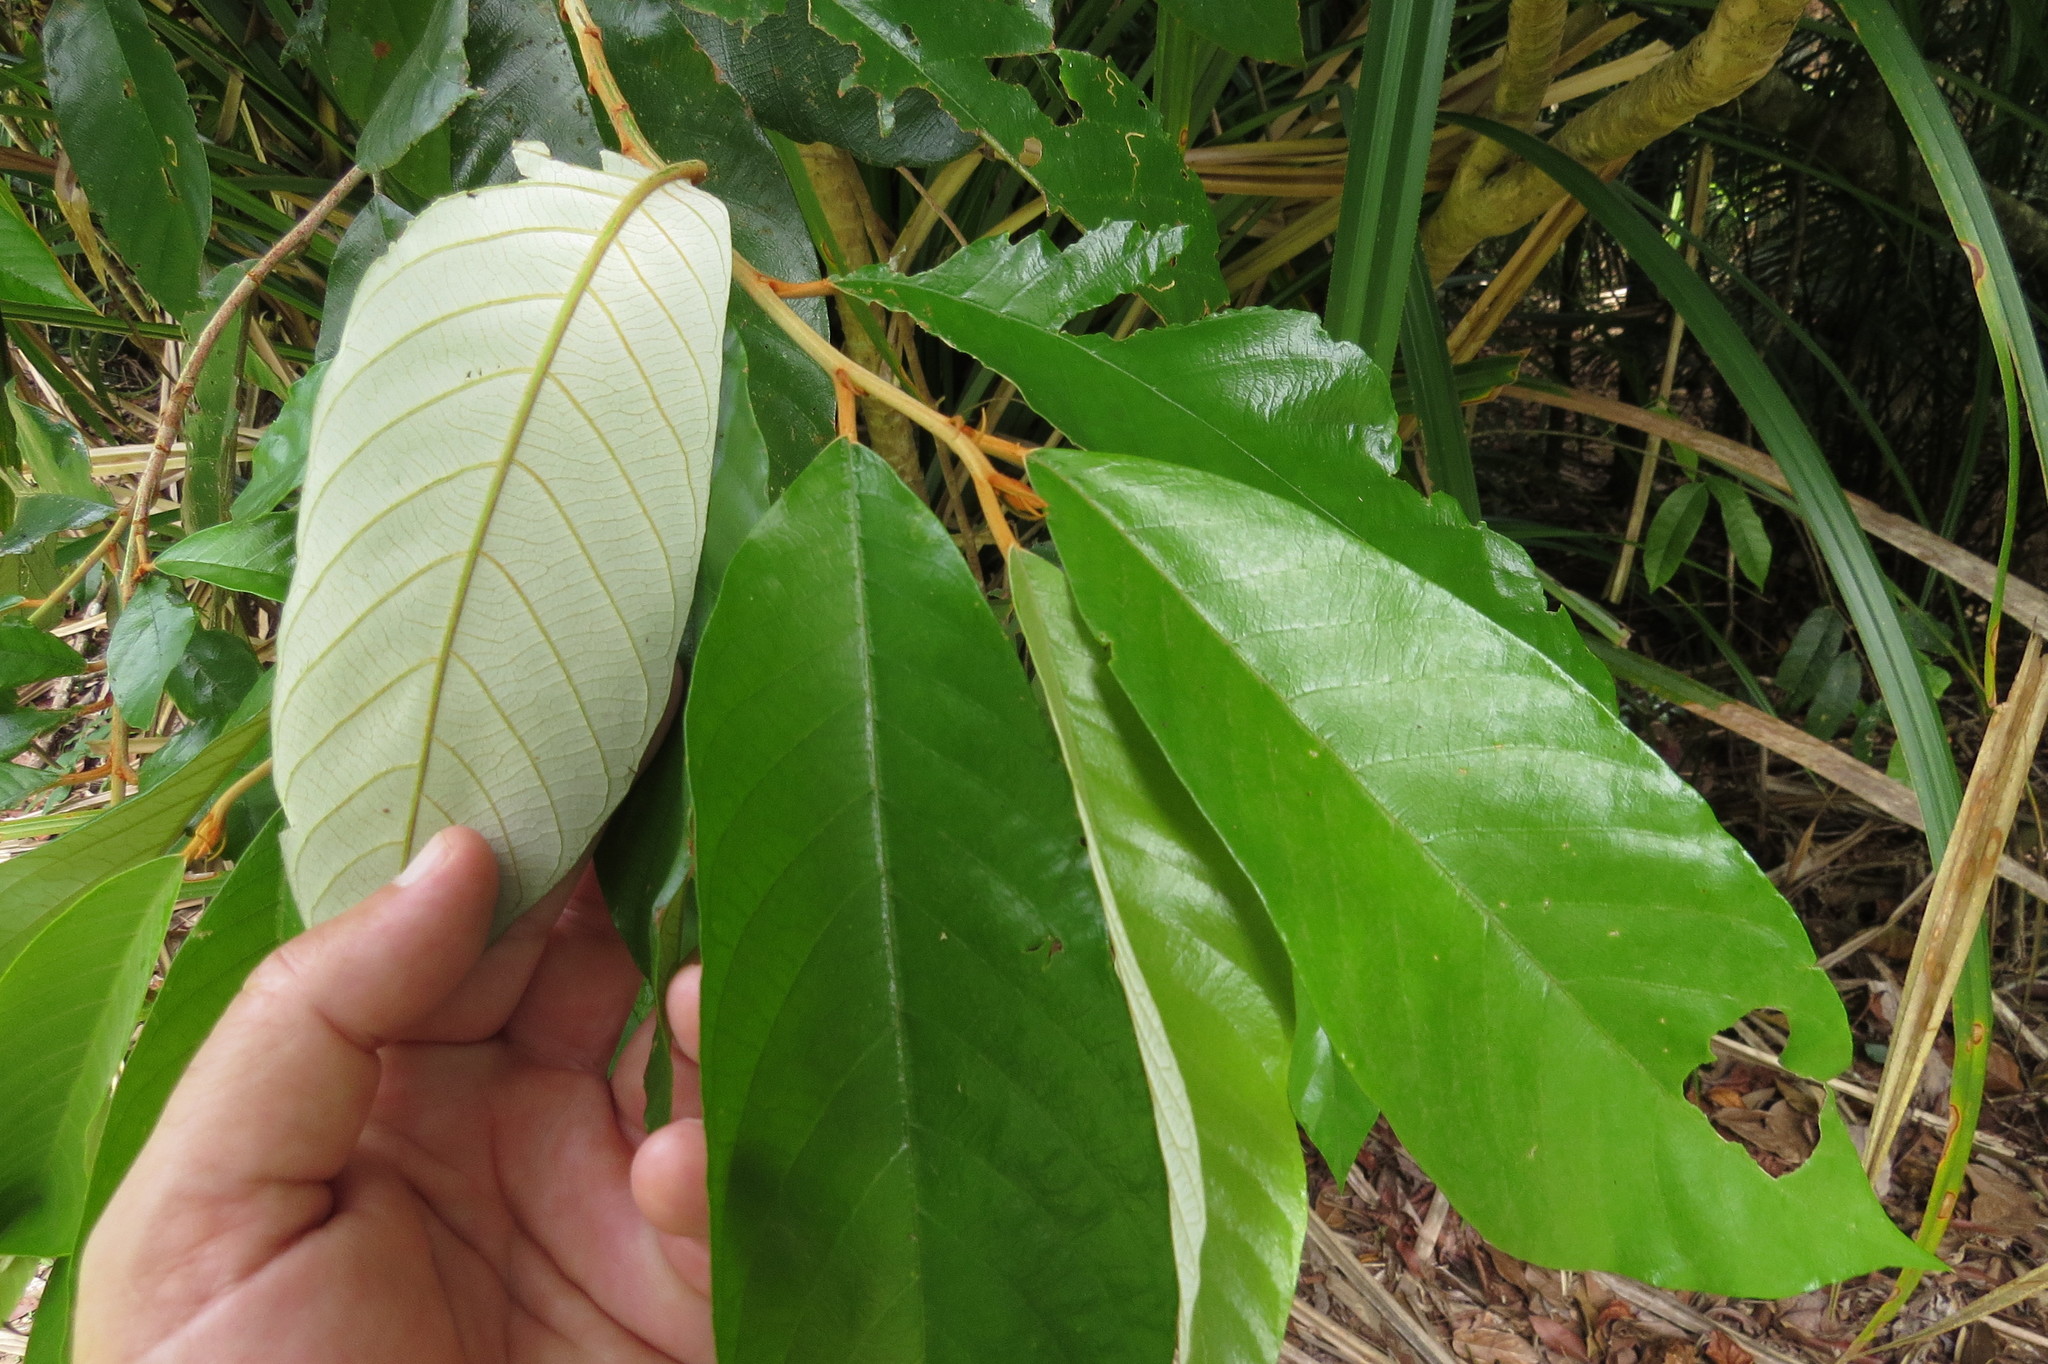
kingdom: Plantae
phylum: Tracheophyta
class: Magnoliopsida
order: Rosales
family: Rhamnaceae
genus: Alphitonia
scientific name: Alphitonia whitei
